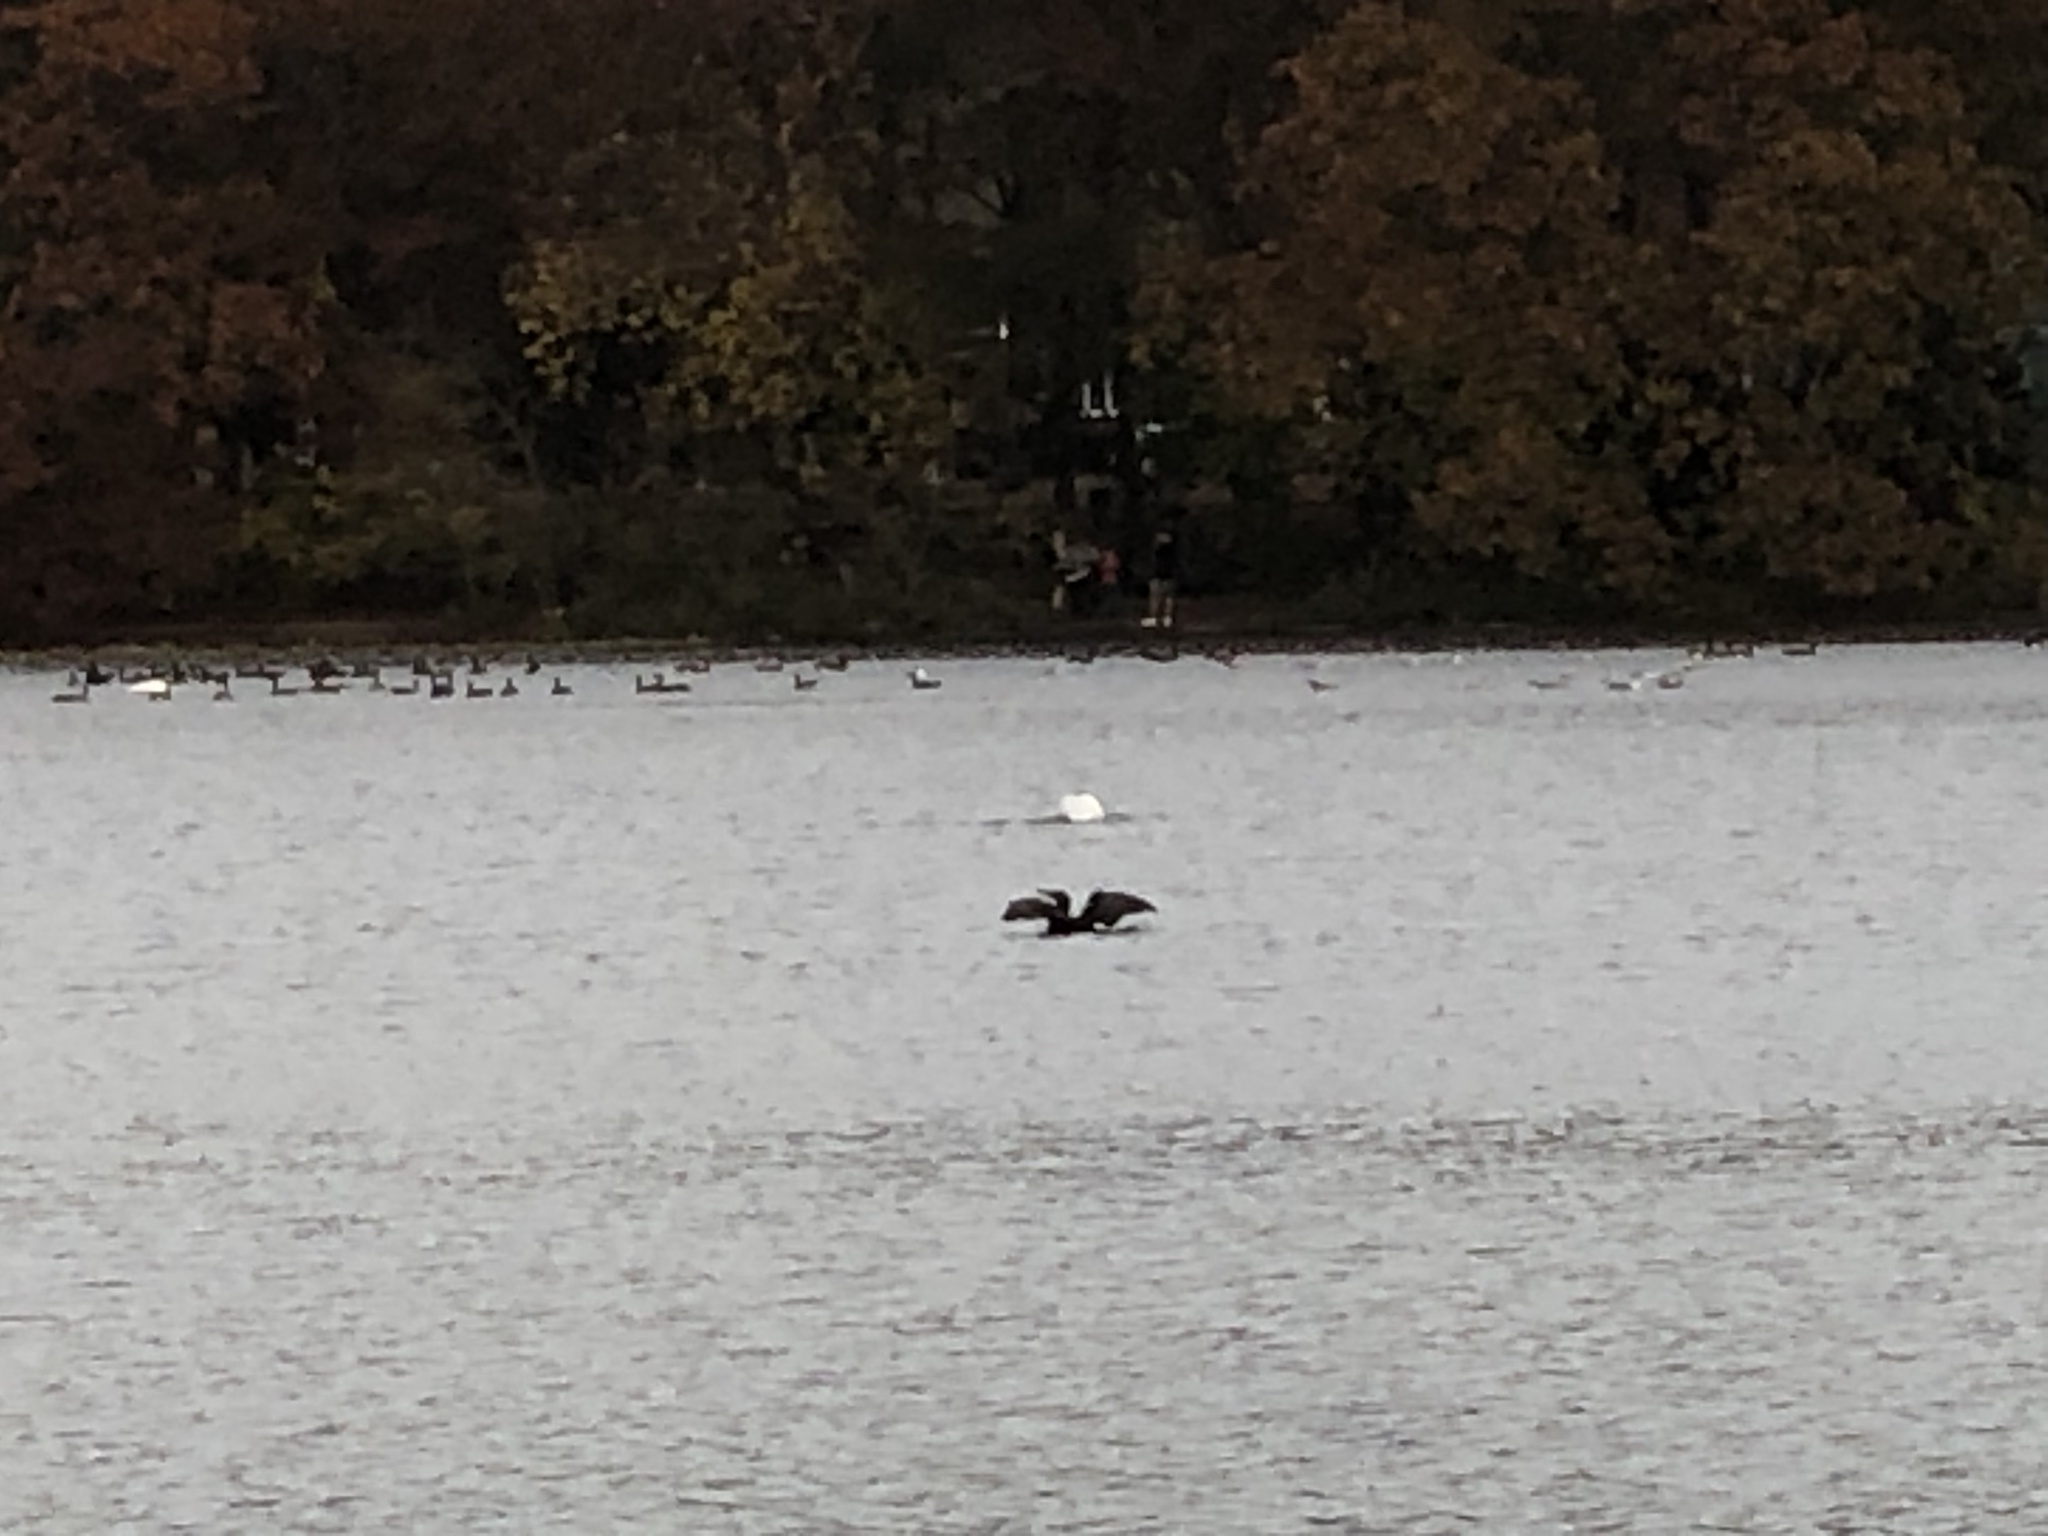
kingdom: Animalia
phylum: Chordata
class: Aves
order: Suliformes
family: Phalacrocoracidae
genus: Phalacrocorax
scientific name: Phalacrocorax auritus
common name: Double-crested cormorant
